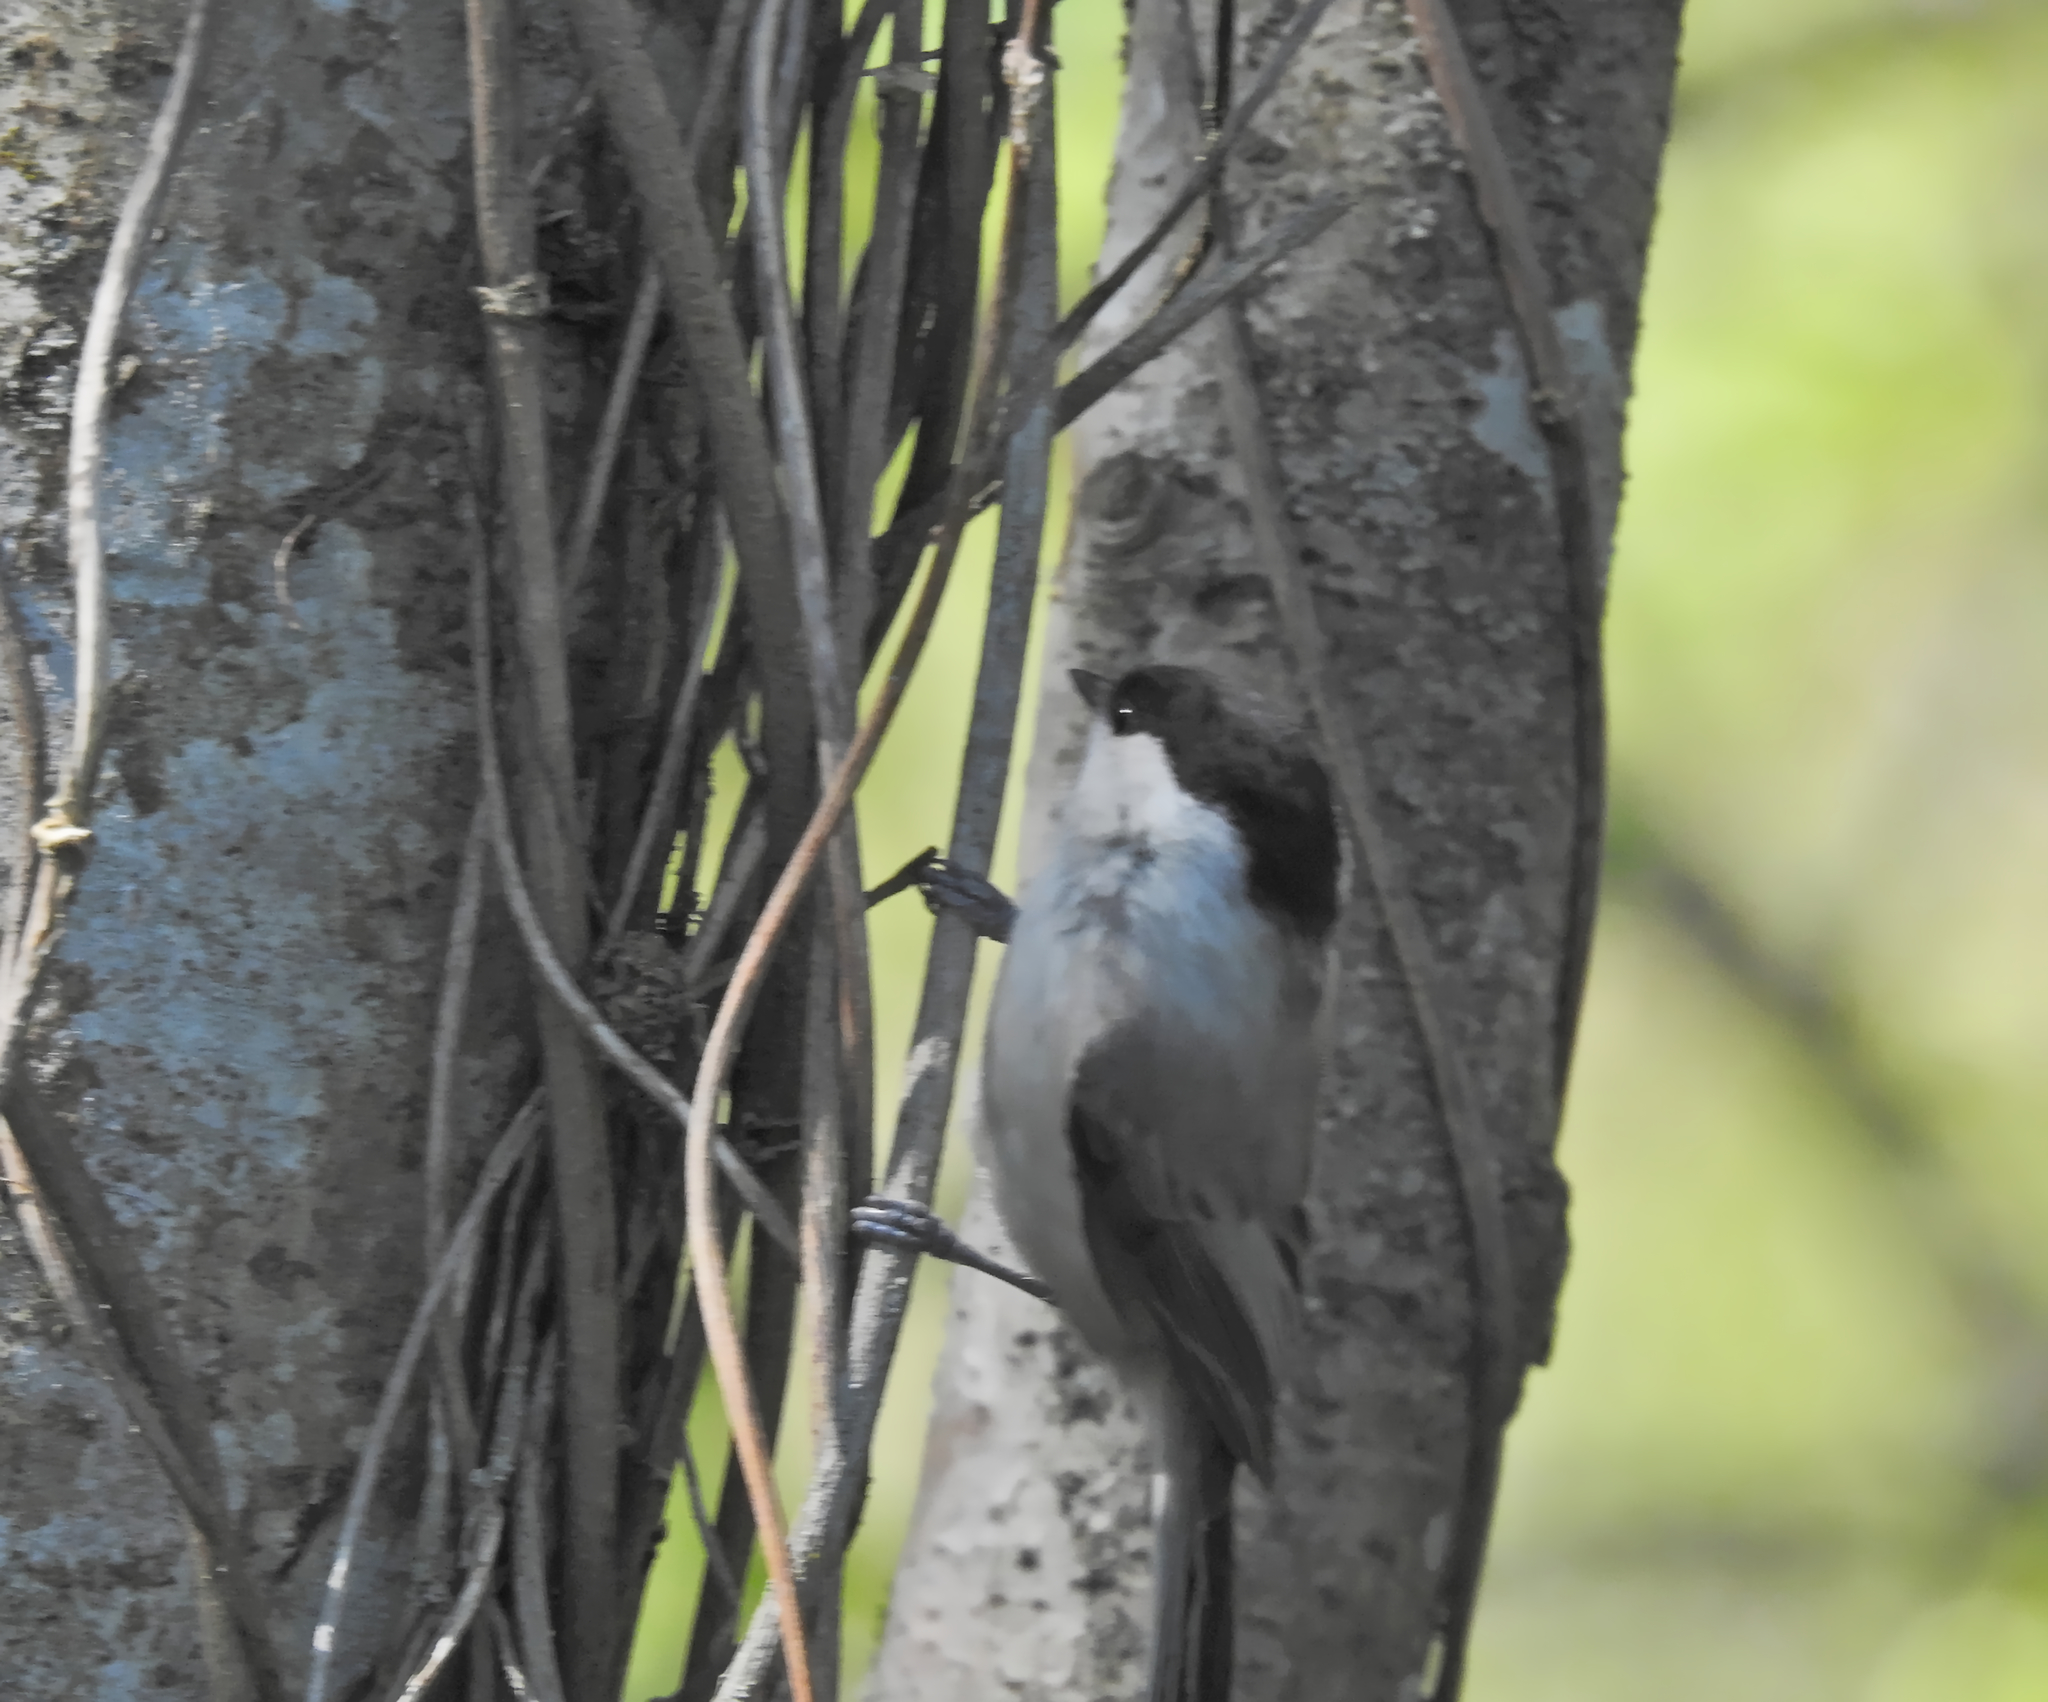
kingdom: Animalia
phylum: Chordata
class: Aves
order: Passeriformes
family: Paridae
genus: Poecile
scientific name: Poecile palustris
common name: Marsh tit
